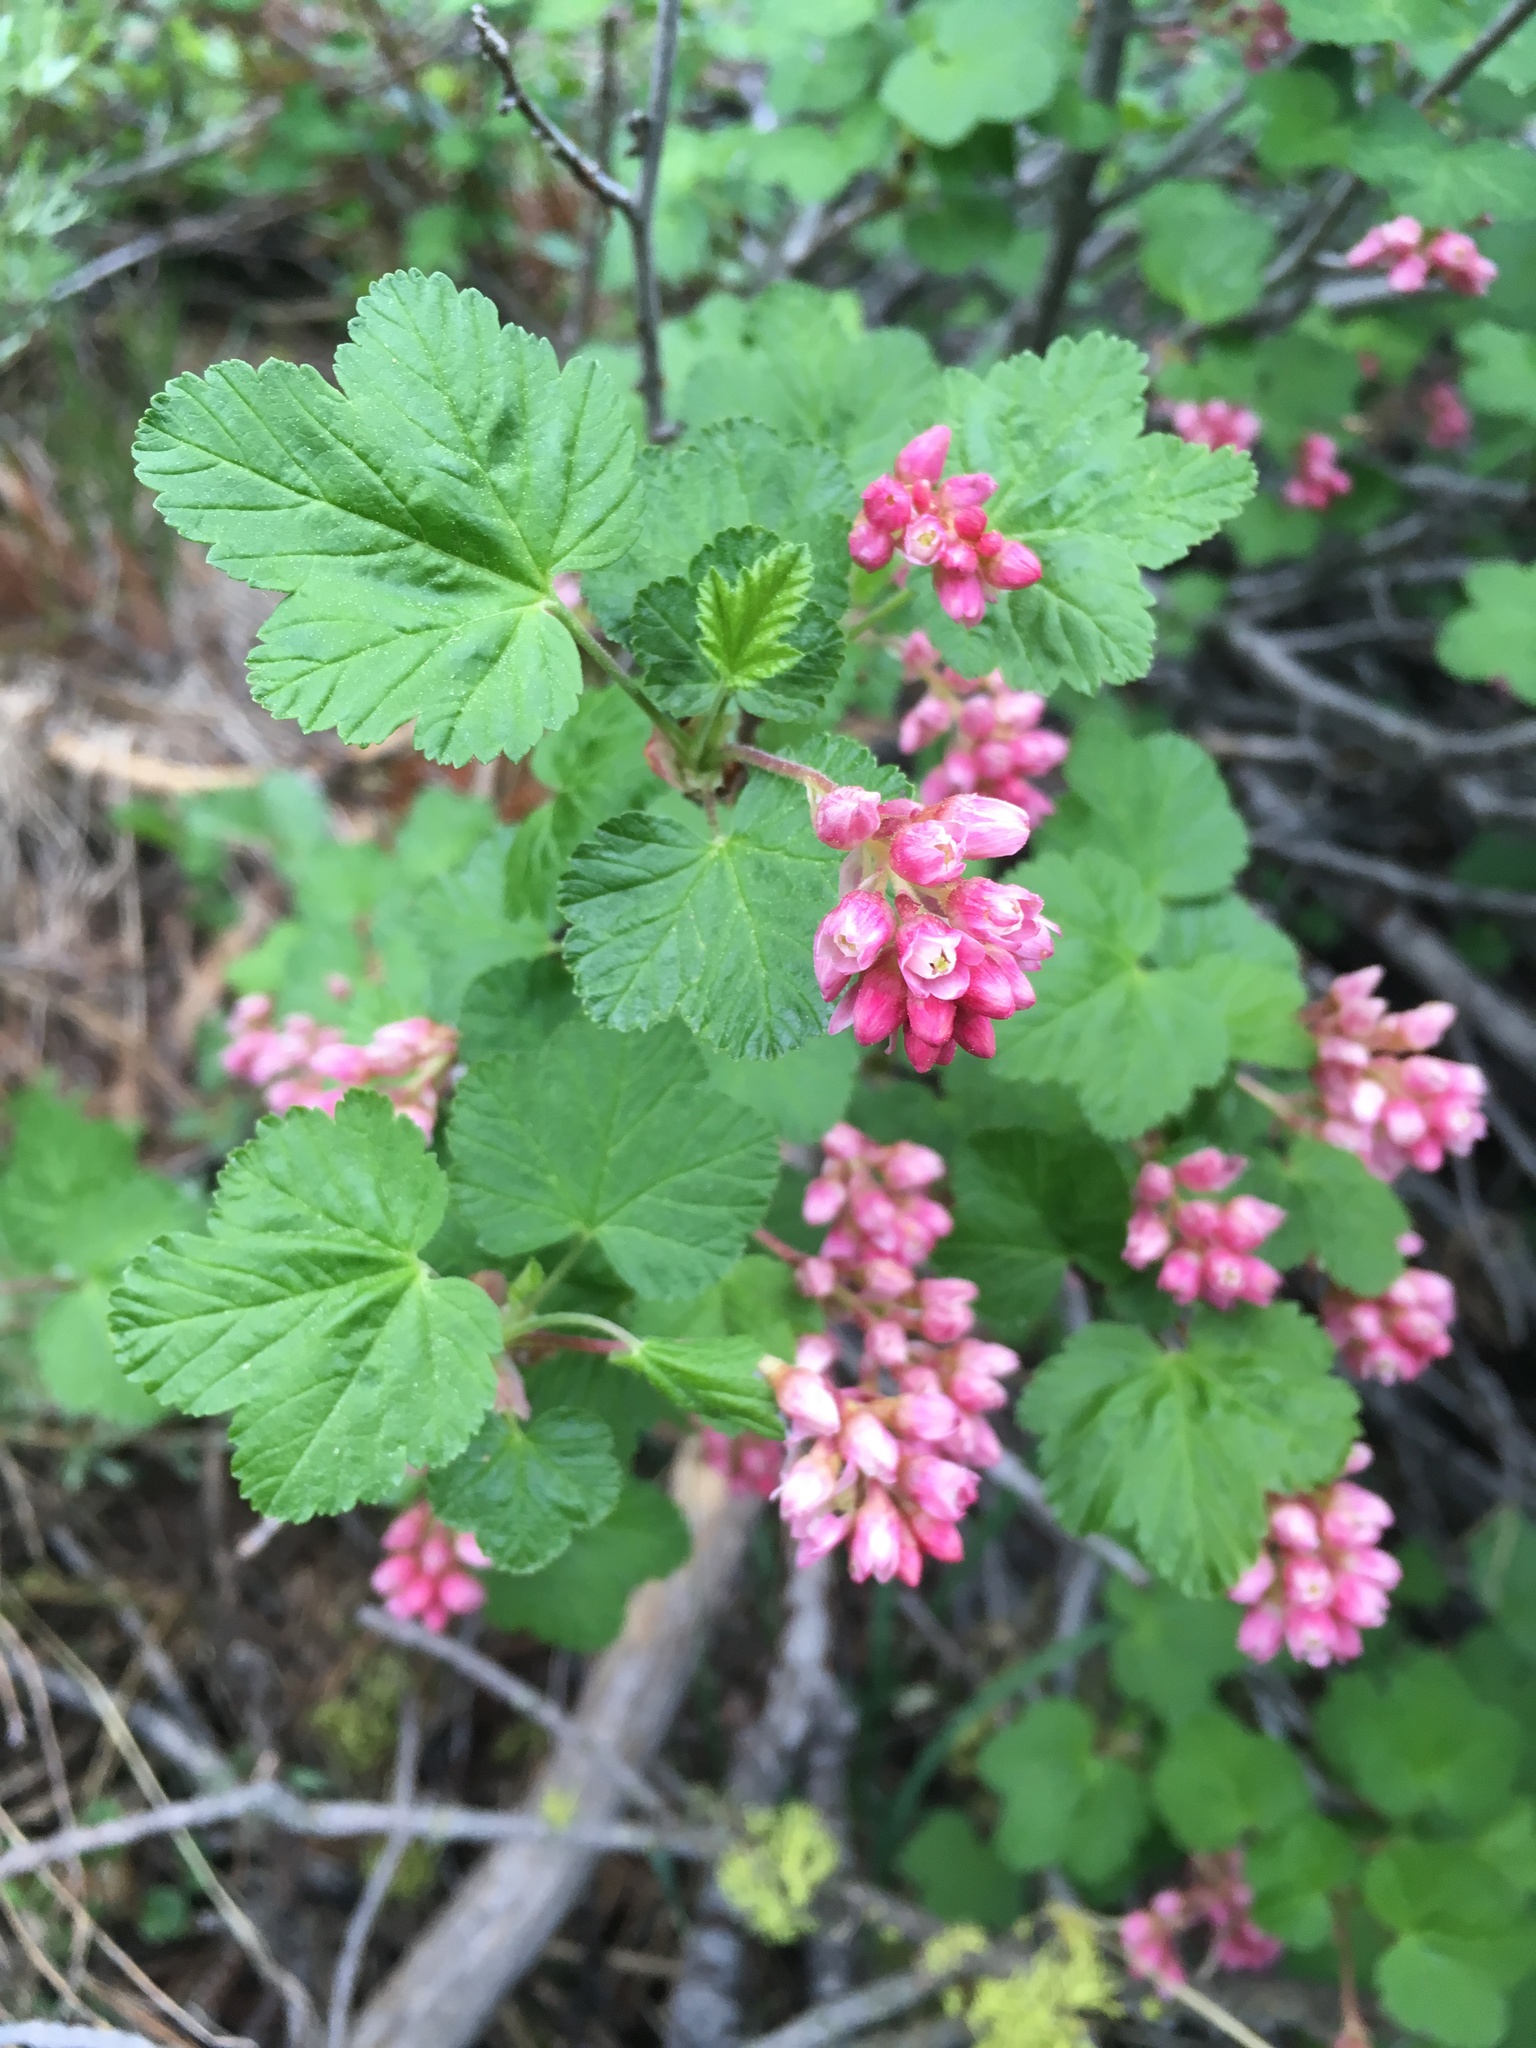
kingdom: Plantae
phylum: Tracheophyta
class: Magnoliopsida
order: Saxifragales
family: Grossulariaceae
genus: Ribes
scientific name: Ribes nevadense
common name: Mountain pink currant
